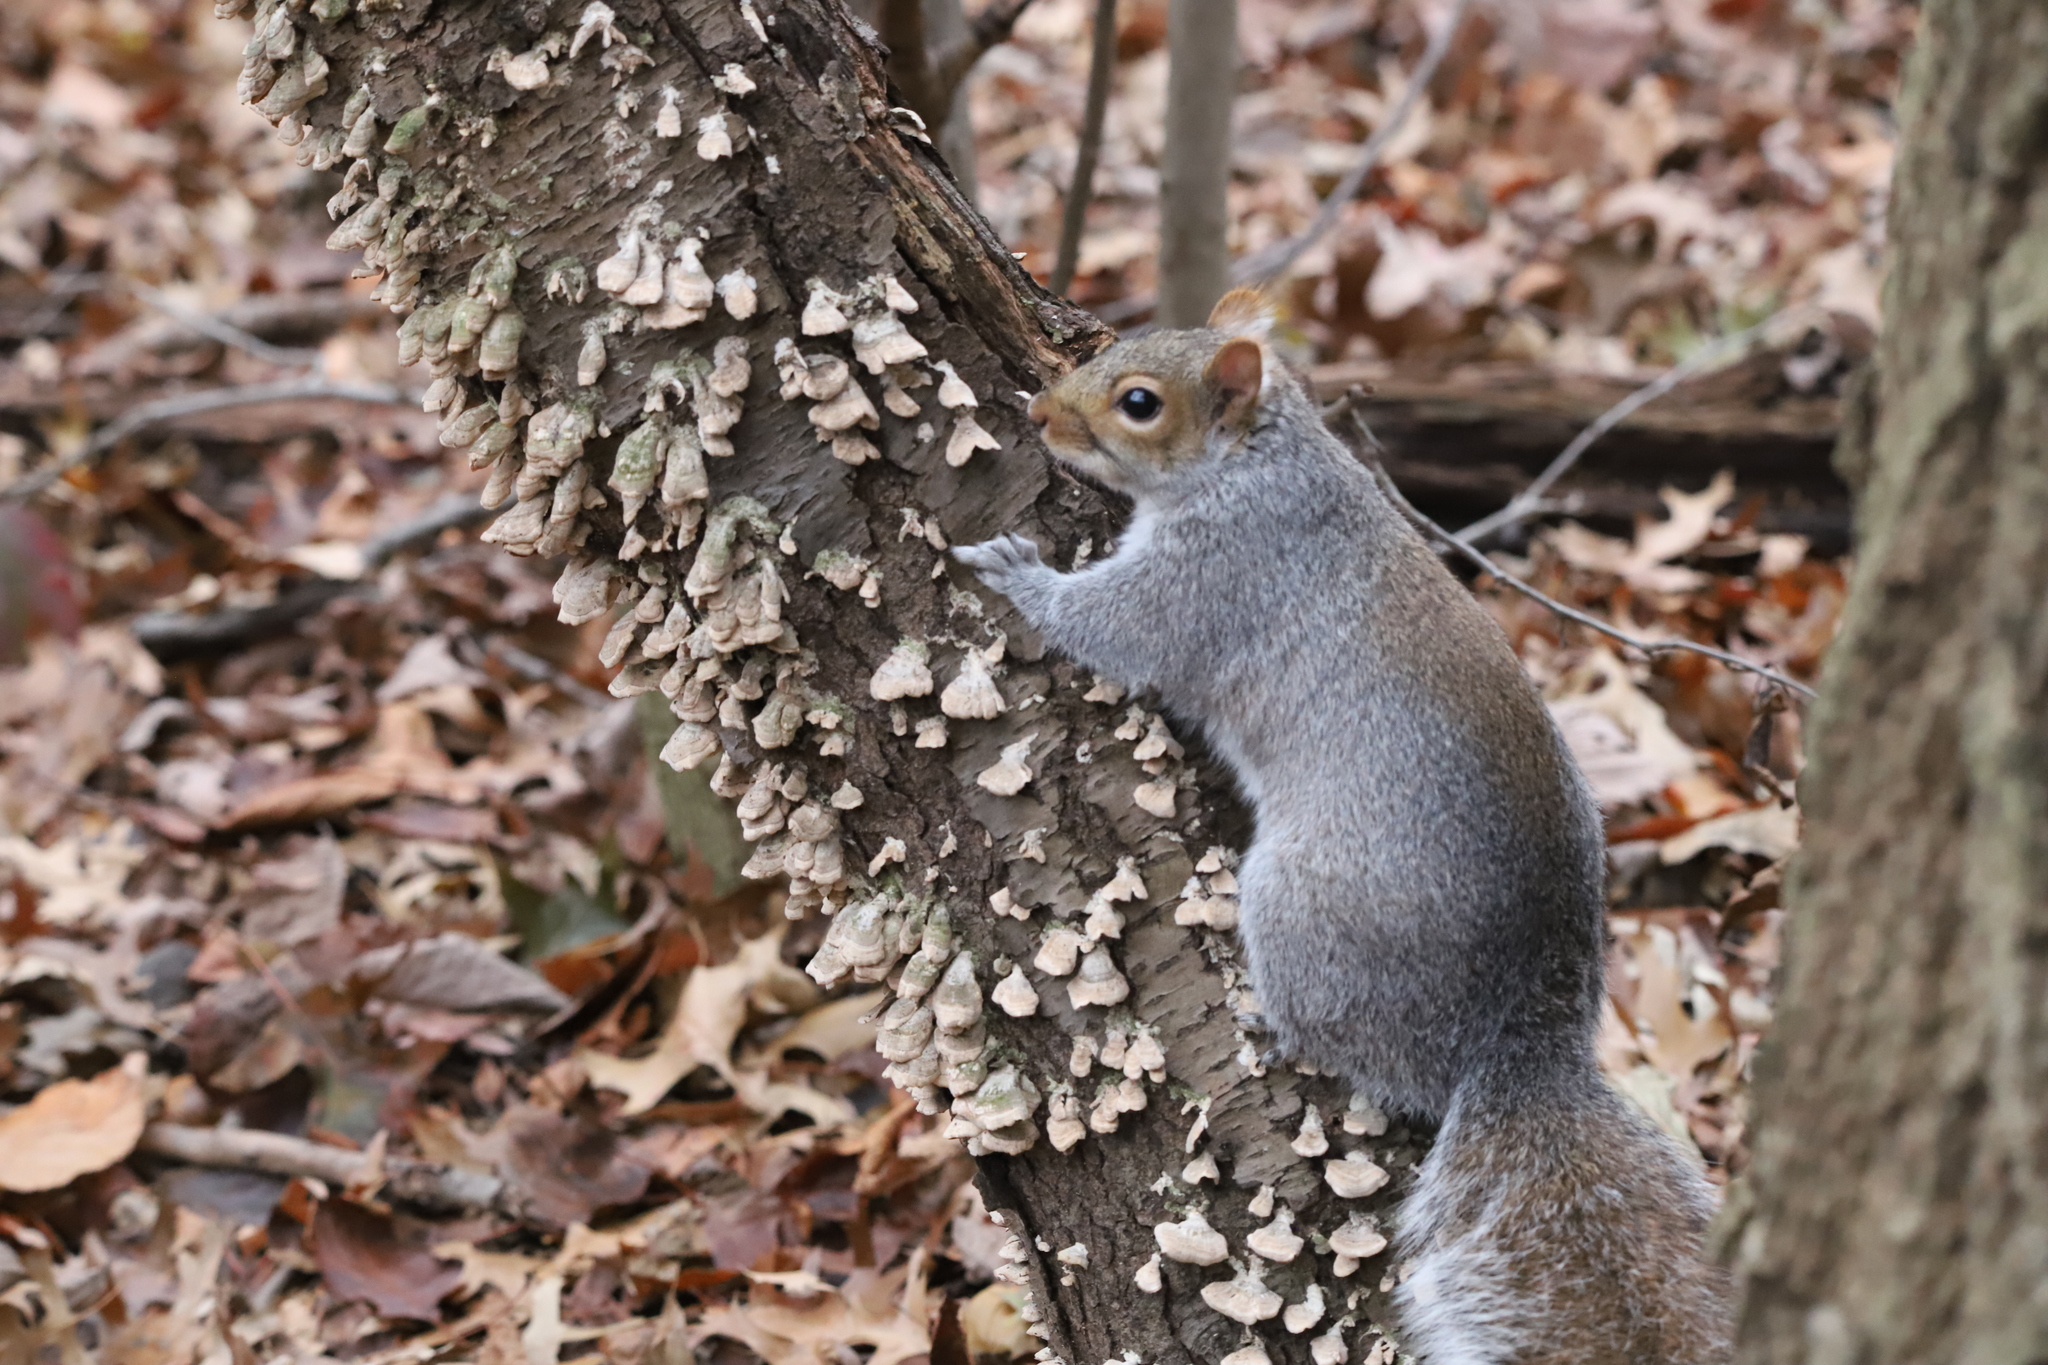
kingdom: Animalia
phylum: Chordata
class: Mammalia
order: Rodentia
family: Sciuridae
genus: Sciurus
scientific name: Sciurus carolinensis
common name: Eastern gray squirrel
